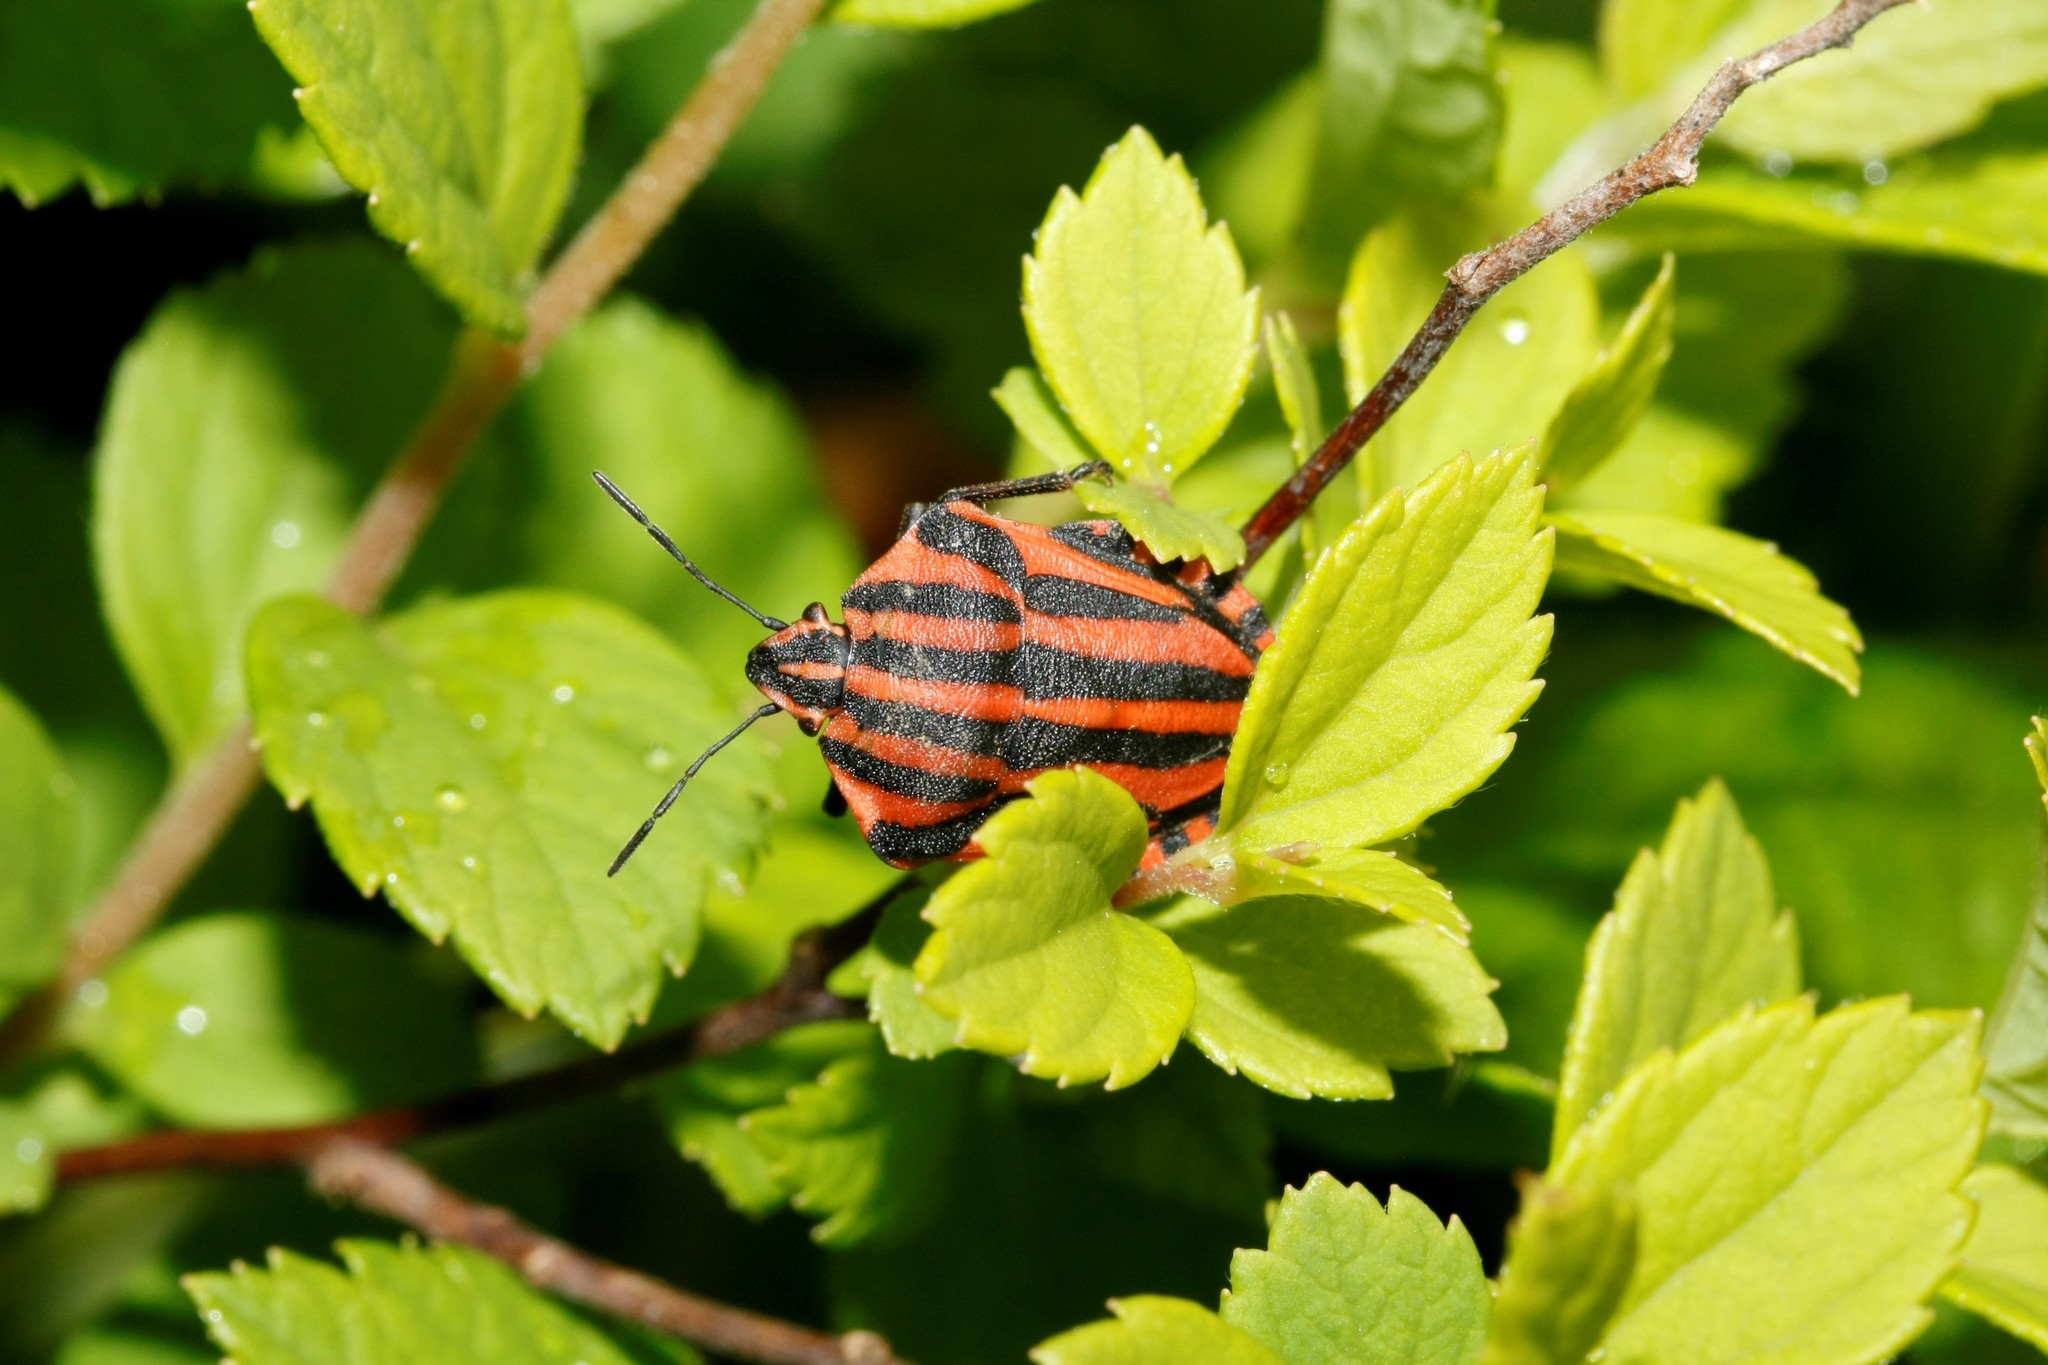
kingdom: Animalia
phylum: Arthropoda
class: Insecta
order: Hemiptera
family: Pentatomidae
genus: Graphosoma
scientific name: Graphosoma italicum
